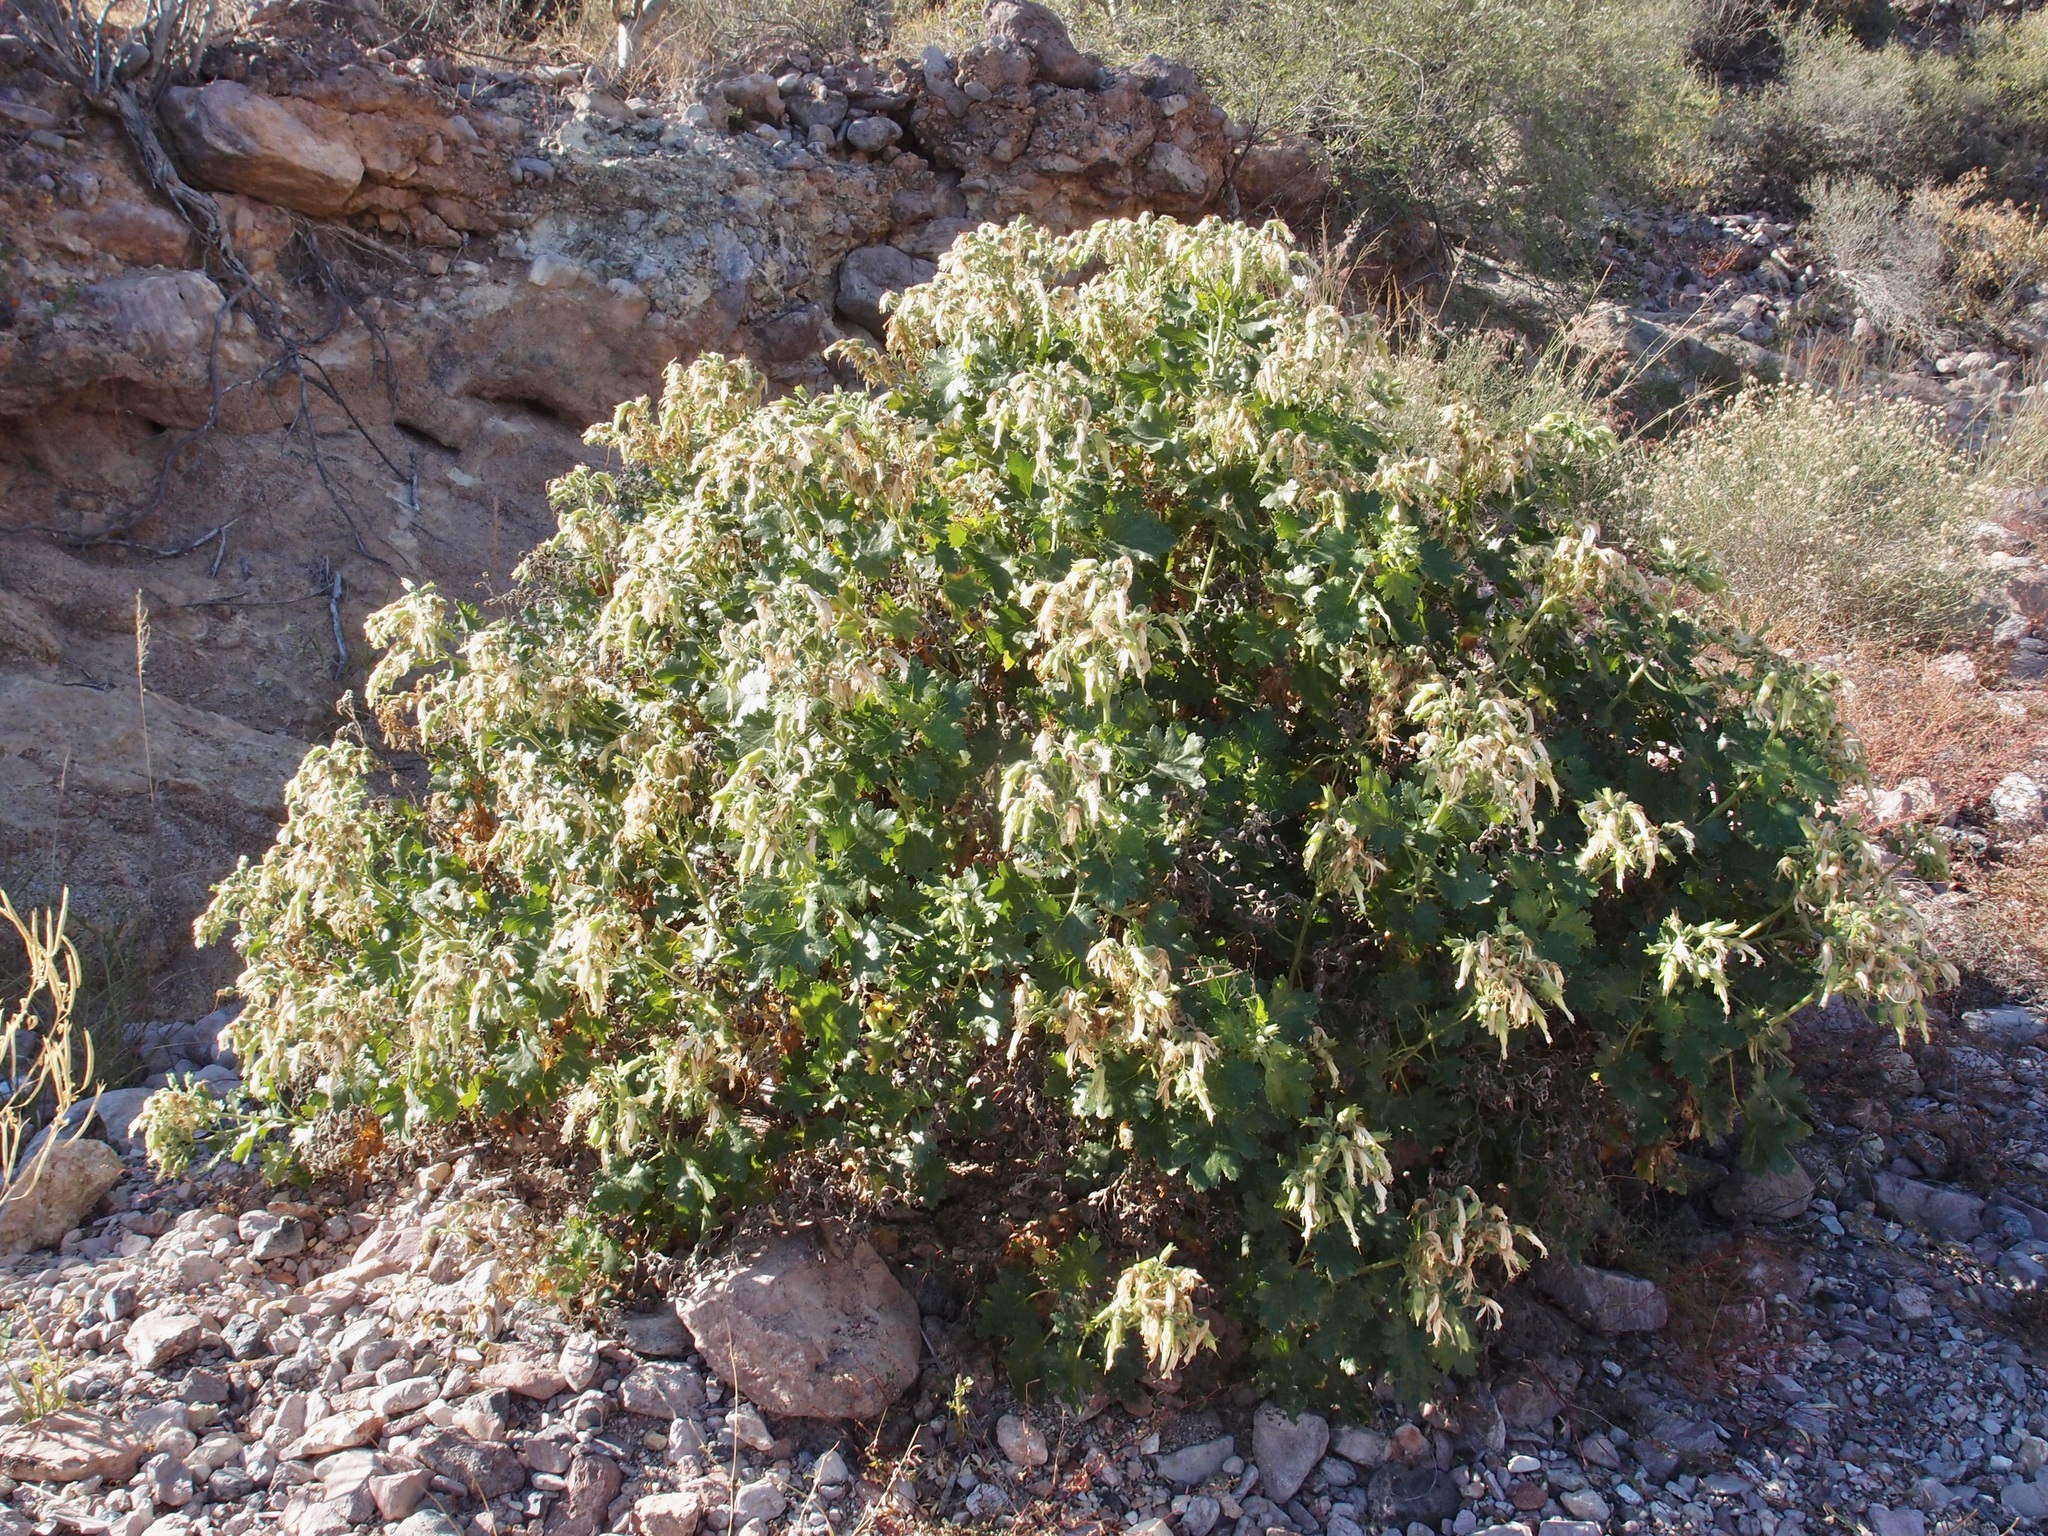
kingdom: Plantae
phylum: Tracheophyta
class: Magnoliopsida
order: Cornales
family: Loasaceae
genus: Eucnide
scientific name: Eucnide cordata
